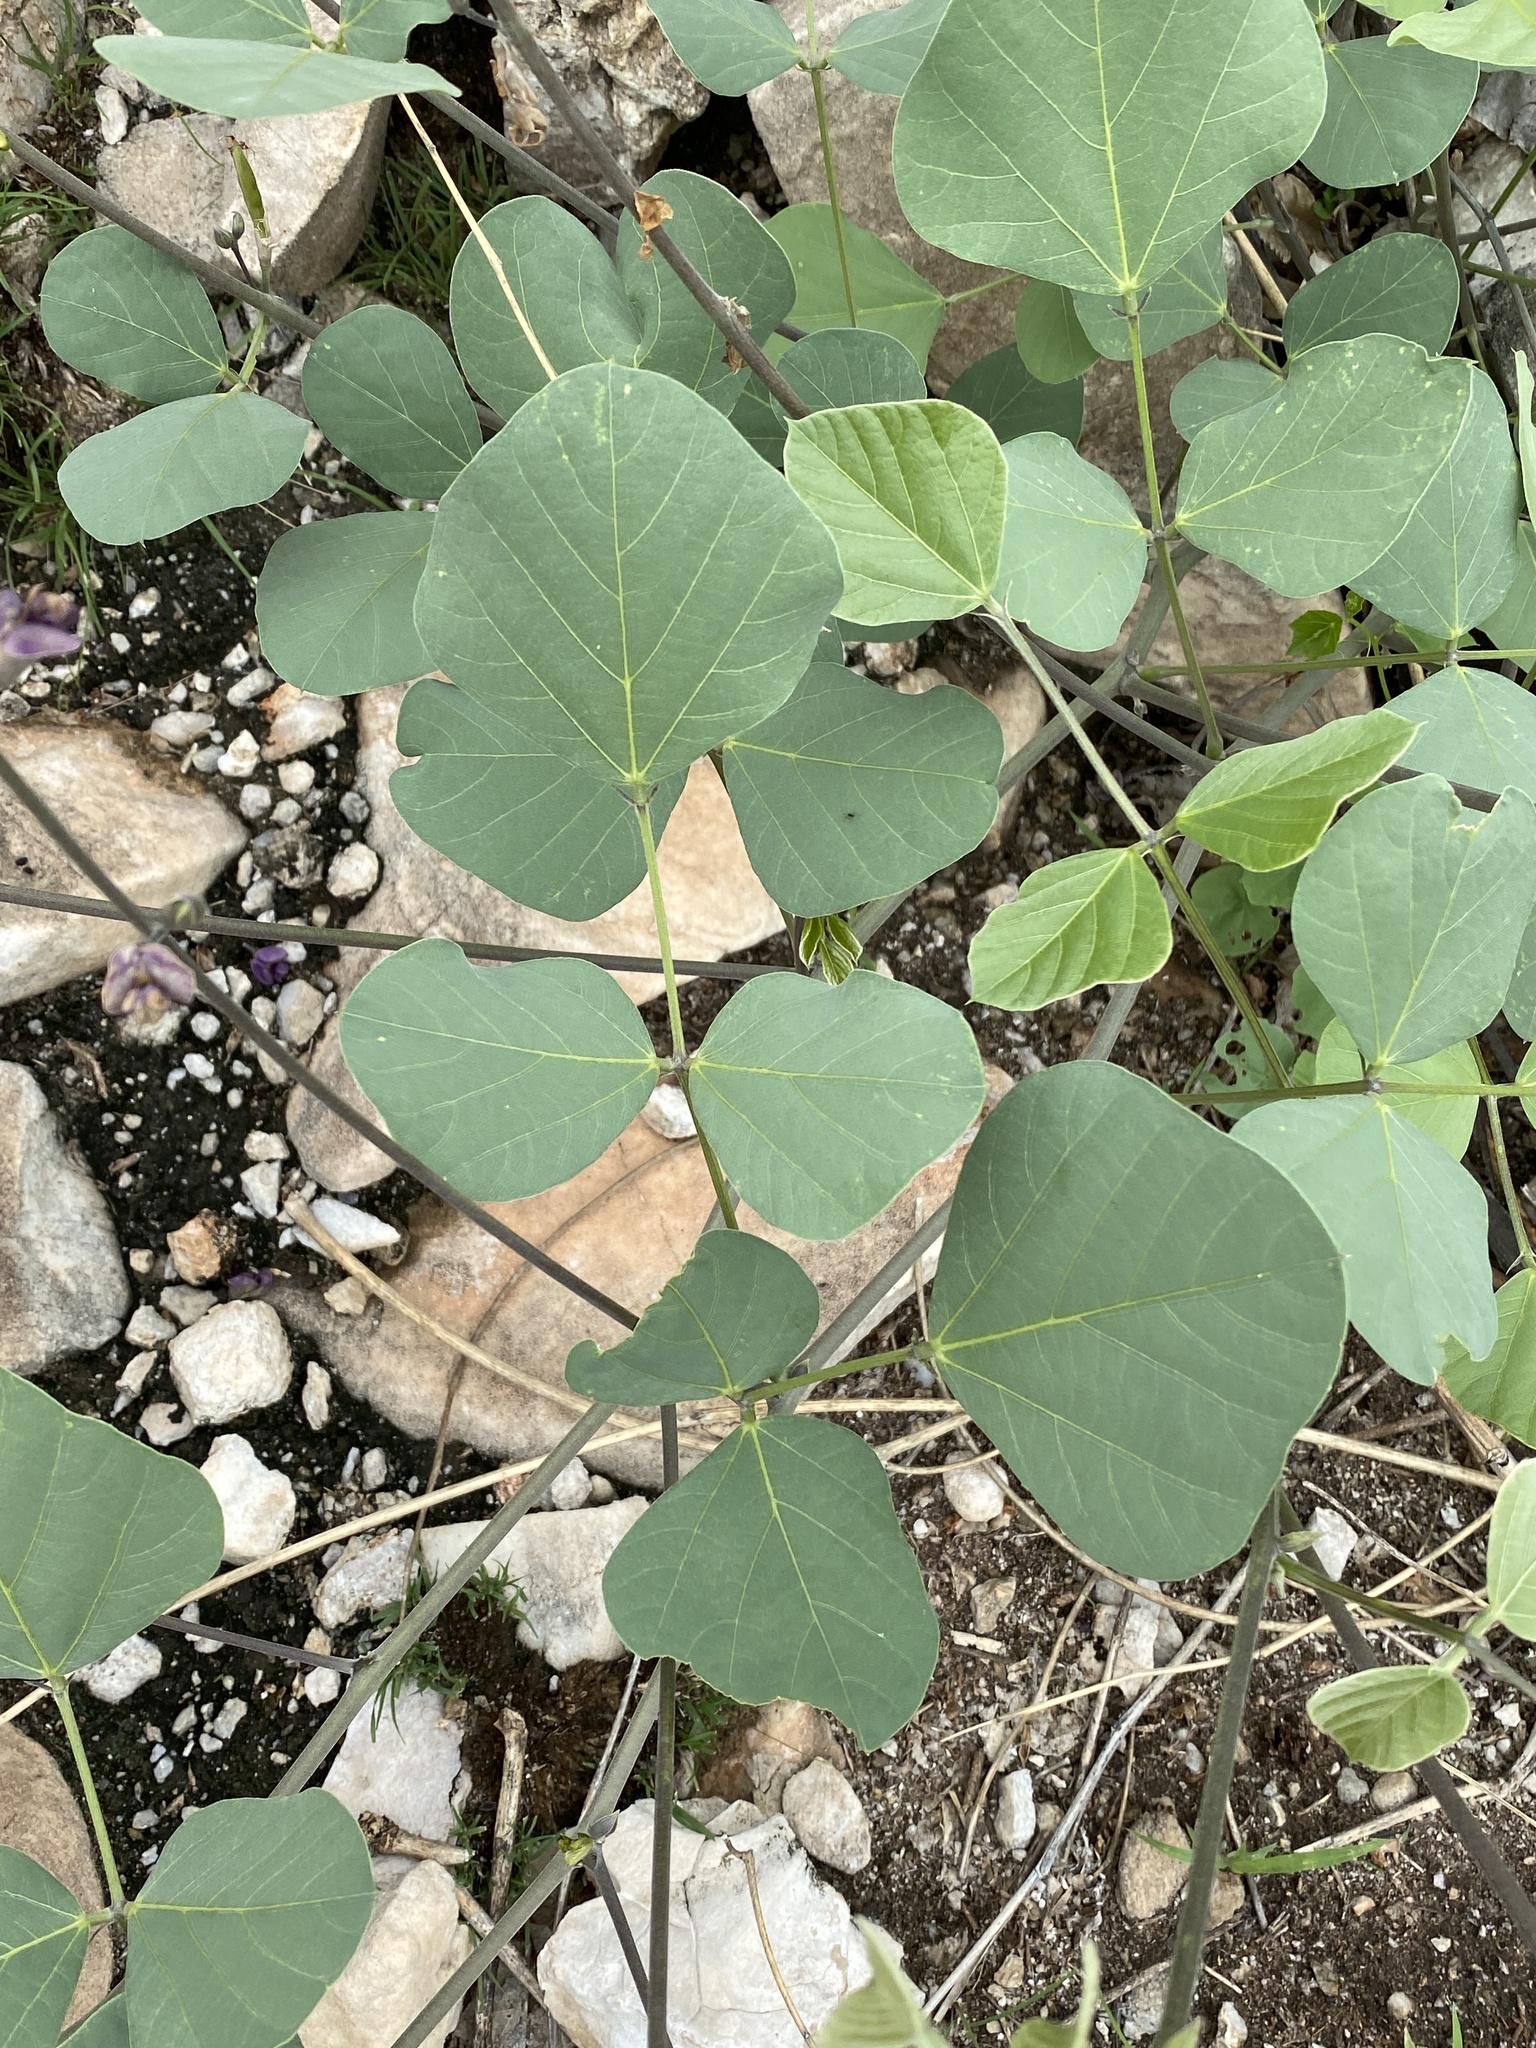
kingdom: Plantae
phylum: Tracheophyta
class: Magnoliopsida
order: Fabales
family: Fabaceae
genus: Neorautanenia
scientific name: Neorautanenia mitis
